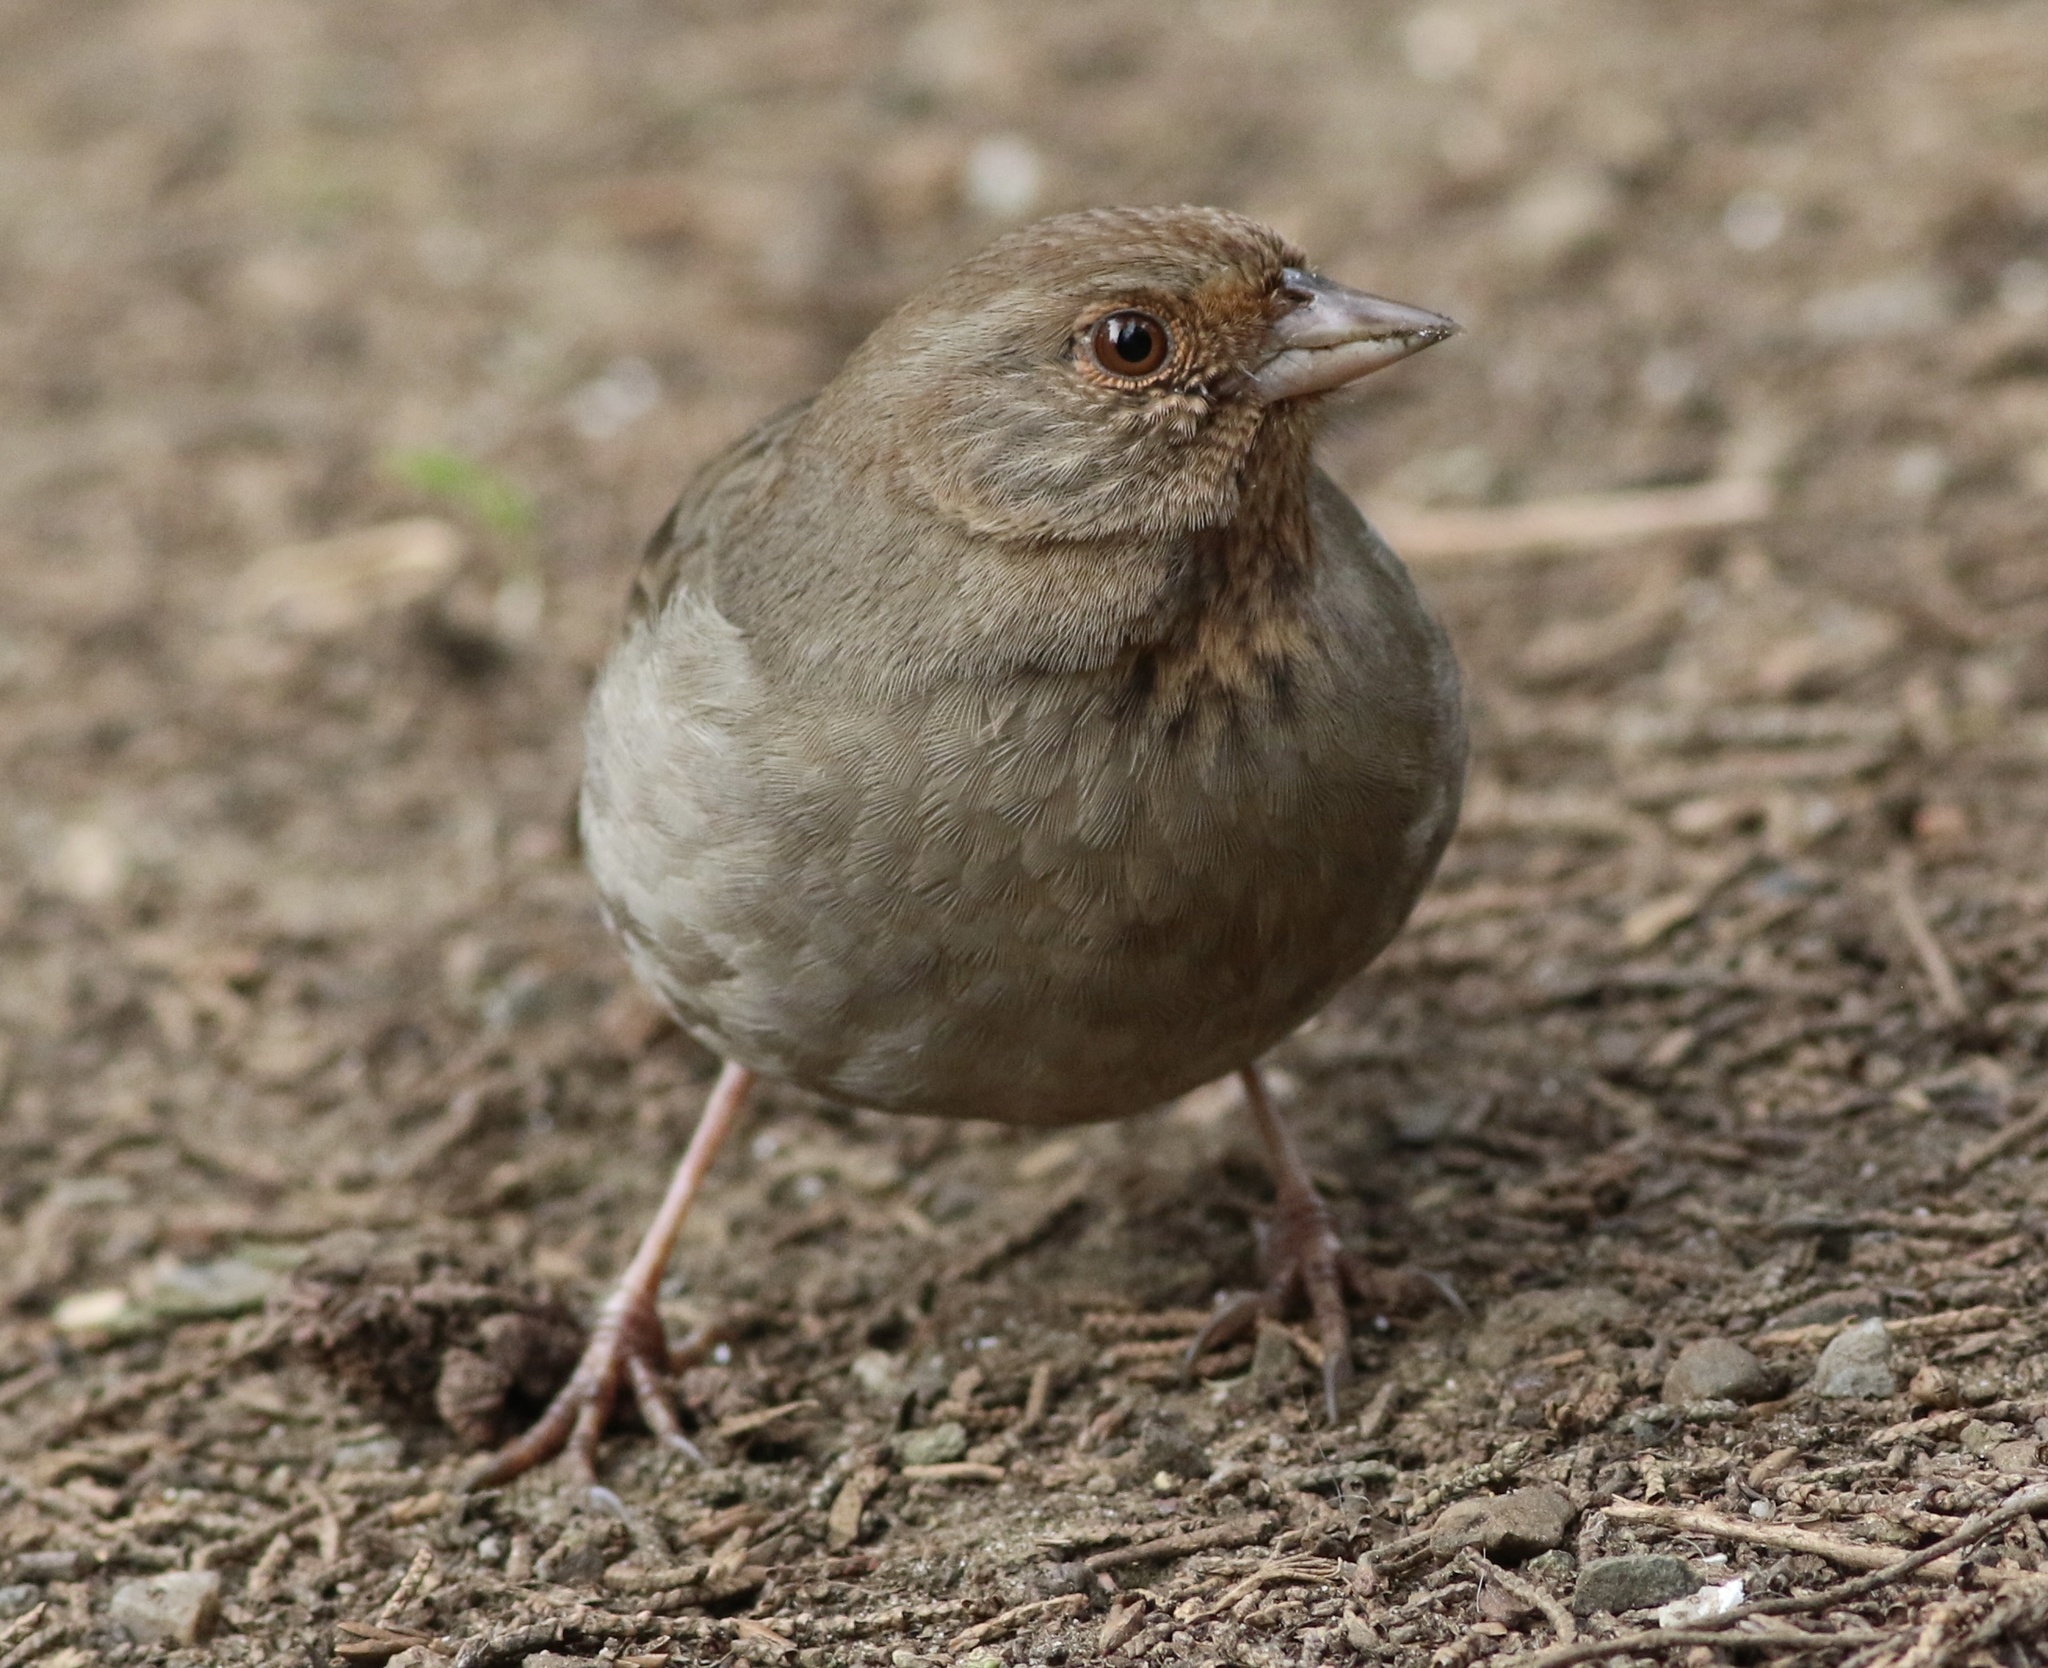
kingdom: Animalia
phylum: Chordata
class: Aves
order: Passeriformes
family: Passerellidae
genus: Melozone
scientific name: Melozone crissalis
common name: California towhee
